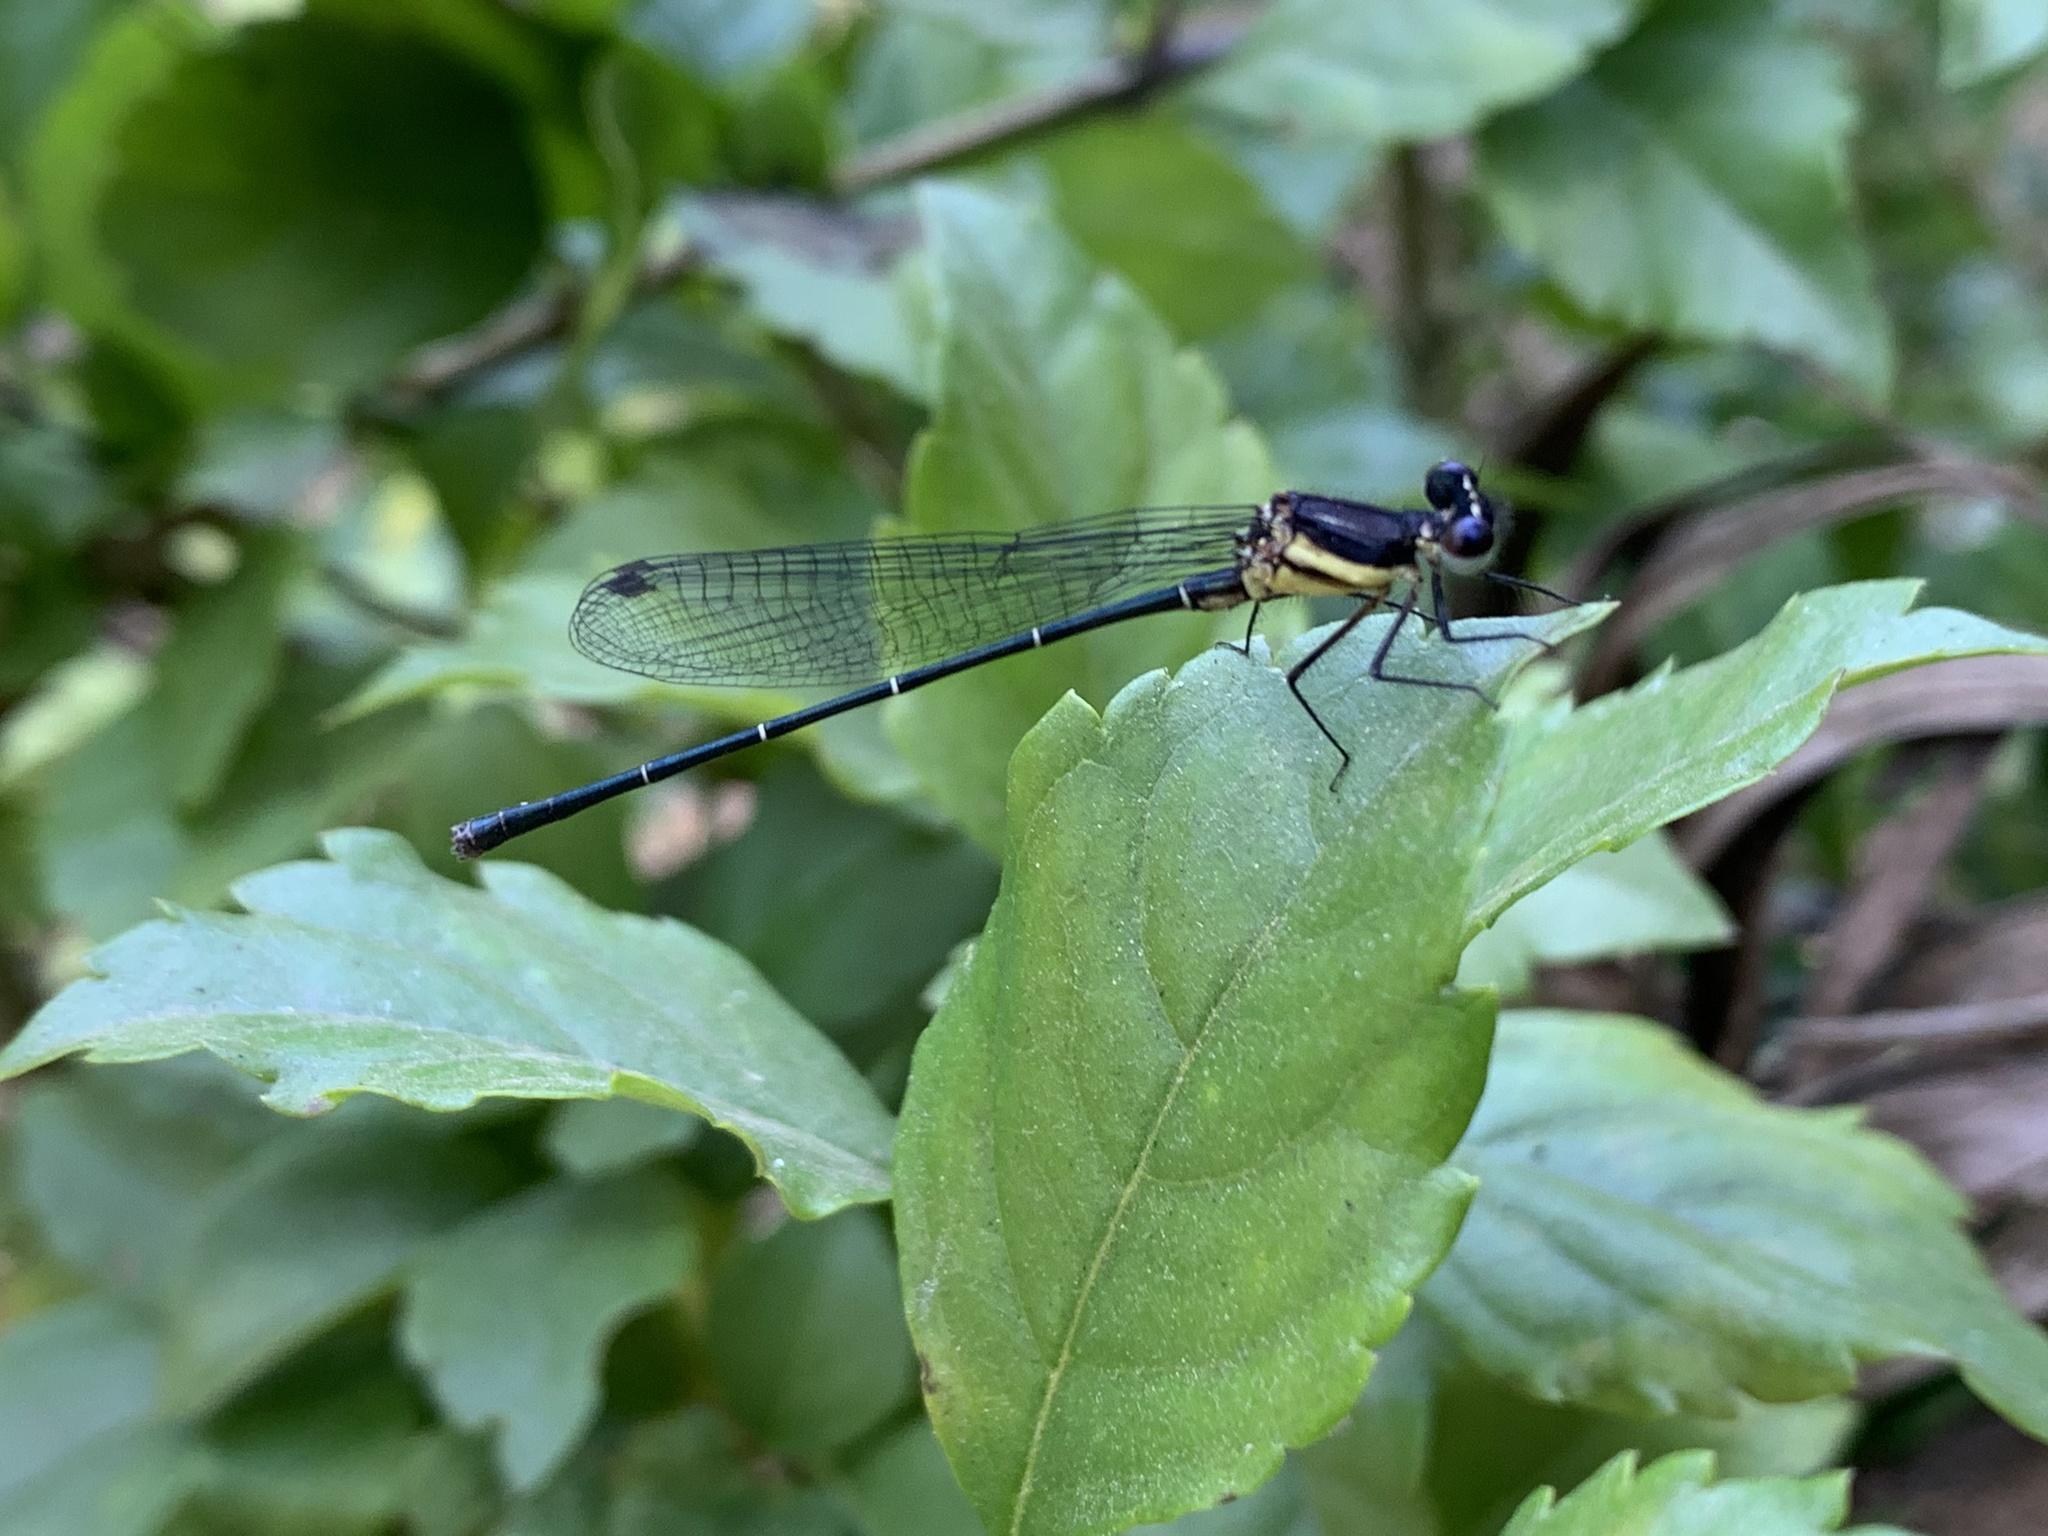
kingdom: Animalia
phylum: Arthropoda
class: Insecta
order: Odonata
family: Platycnemididae
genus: Onychargia
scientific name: Onychargia atrocyana
